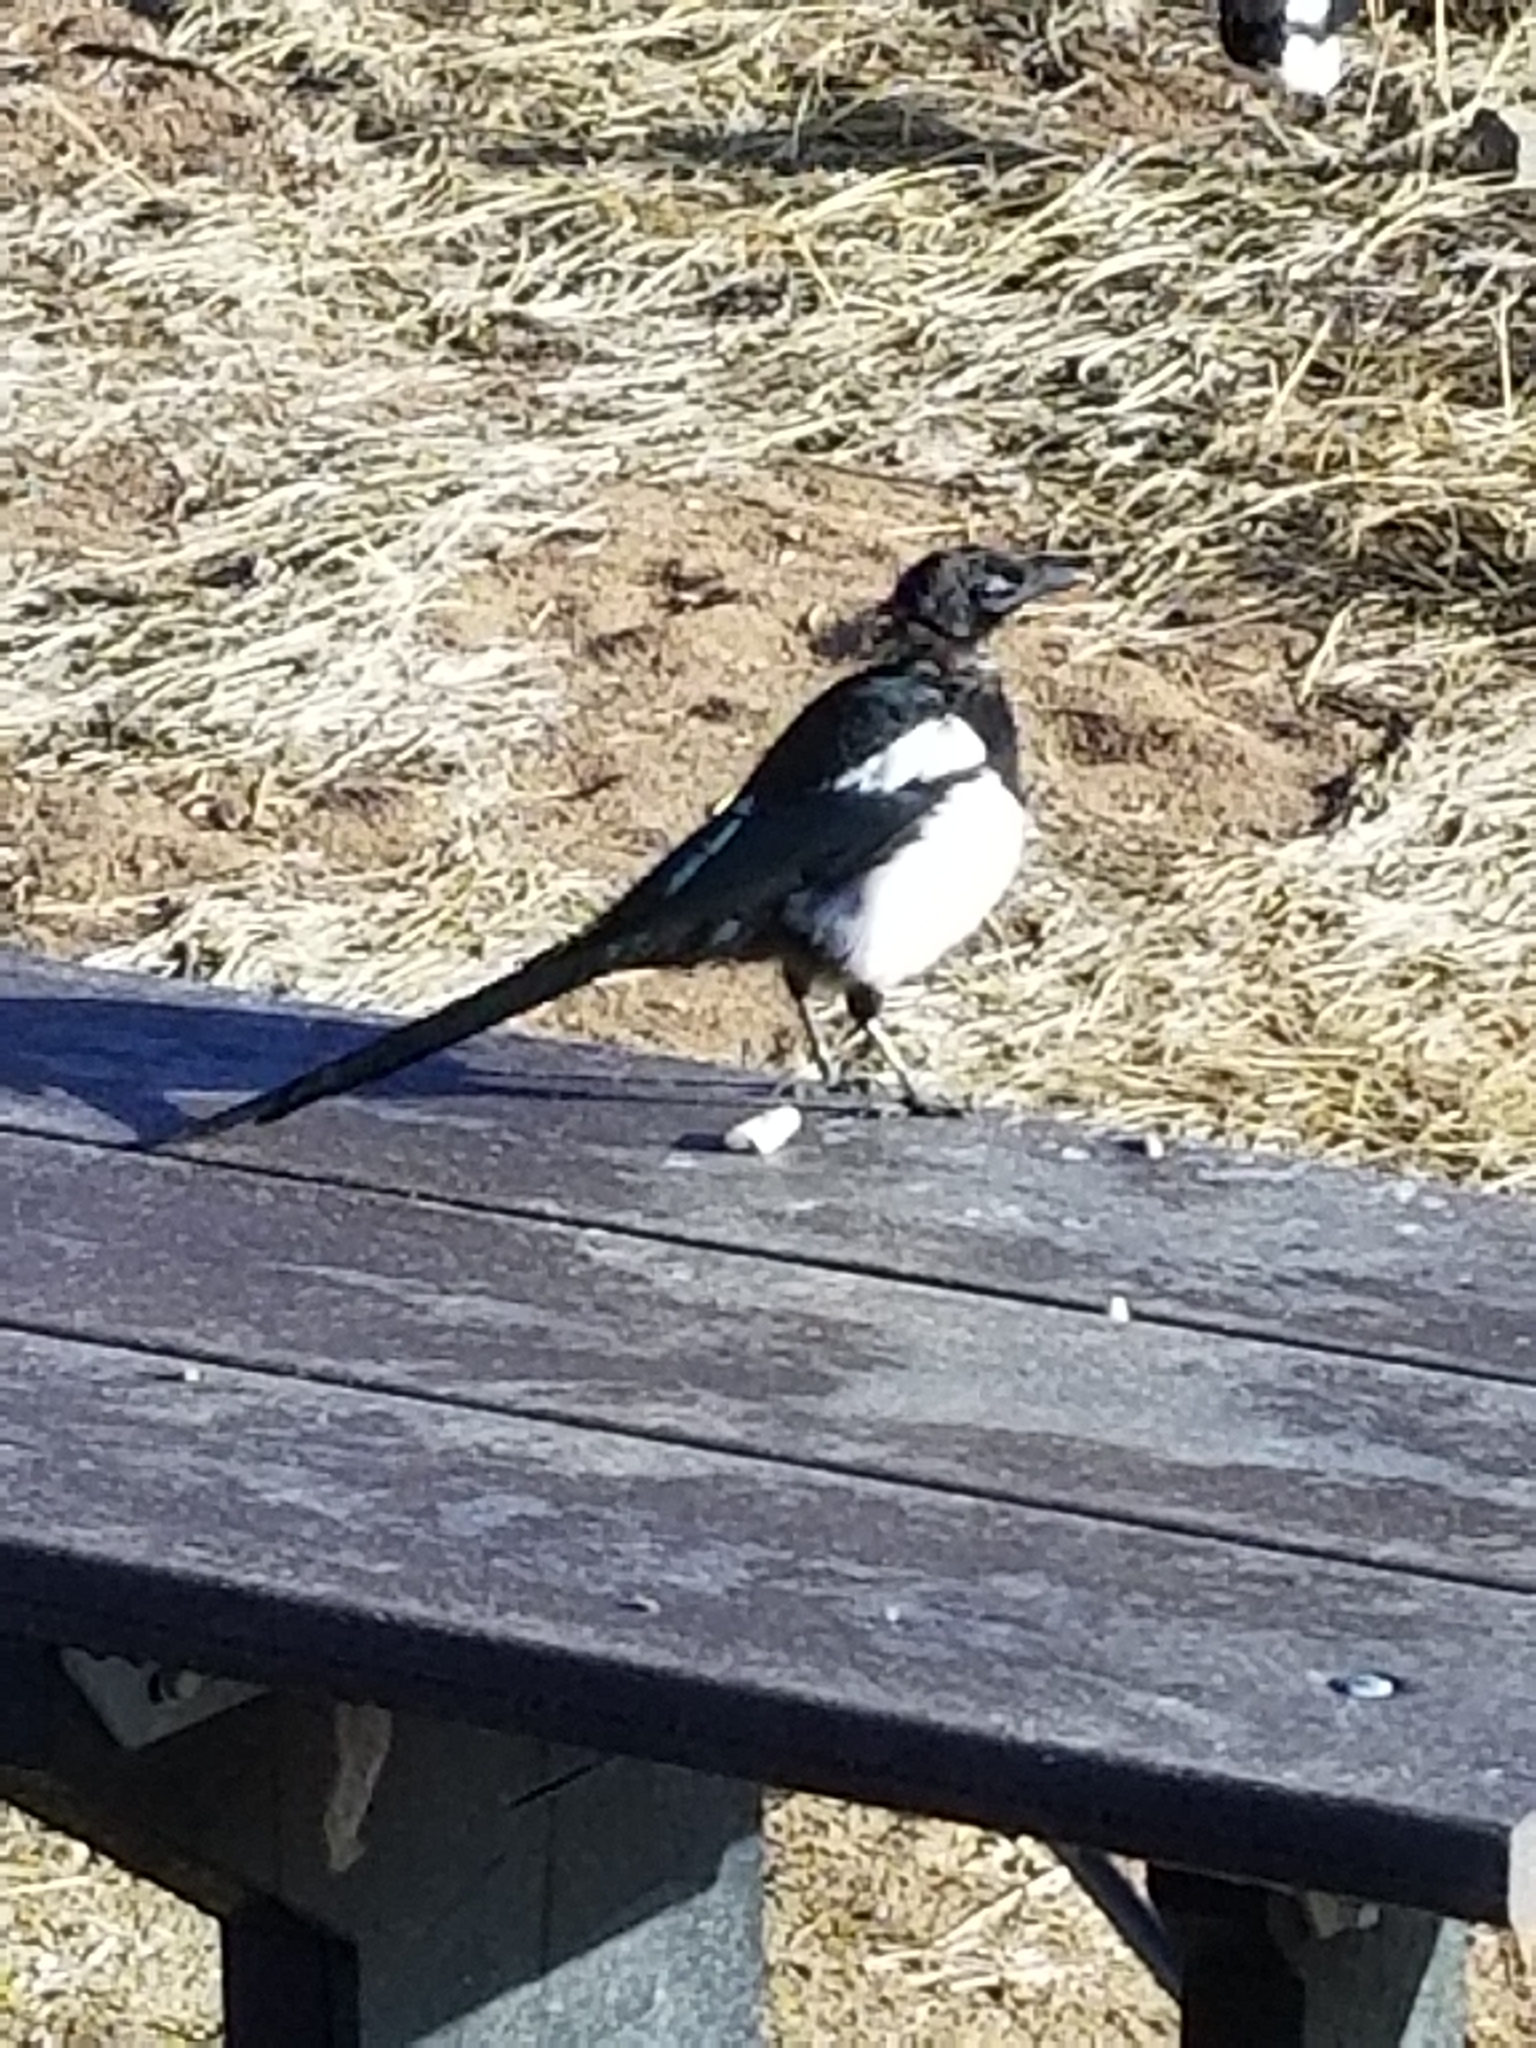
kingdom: Animalia
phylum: Chordata
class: Aves
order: Passeriformes
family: Corvidae
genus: Pica
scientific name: Pica hudsonia
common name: Black-billed magpie
